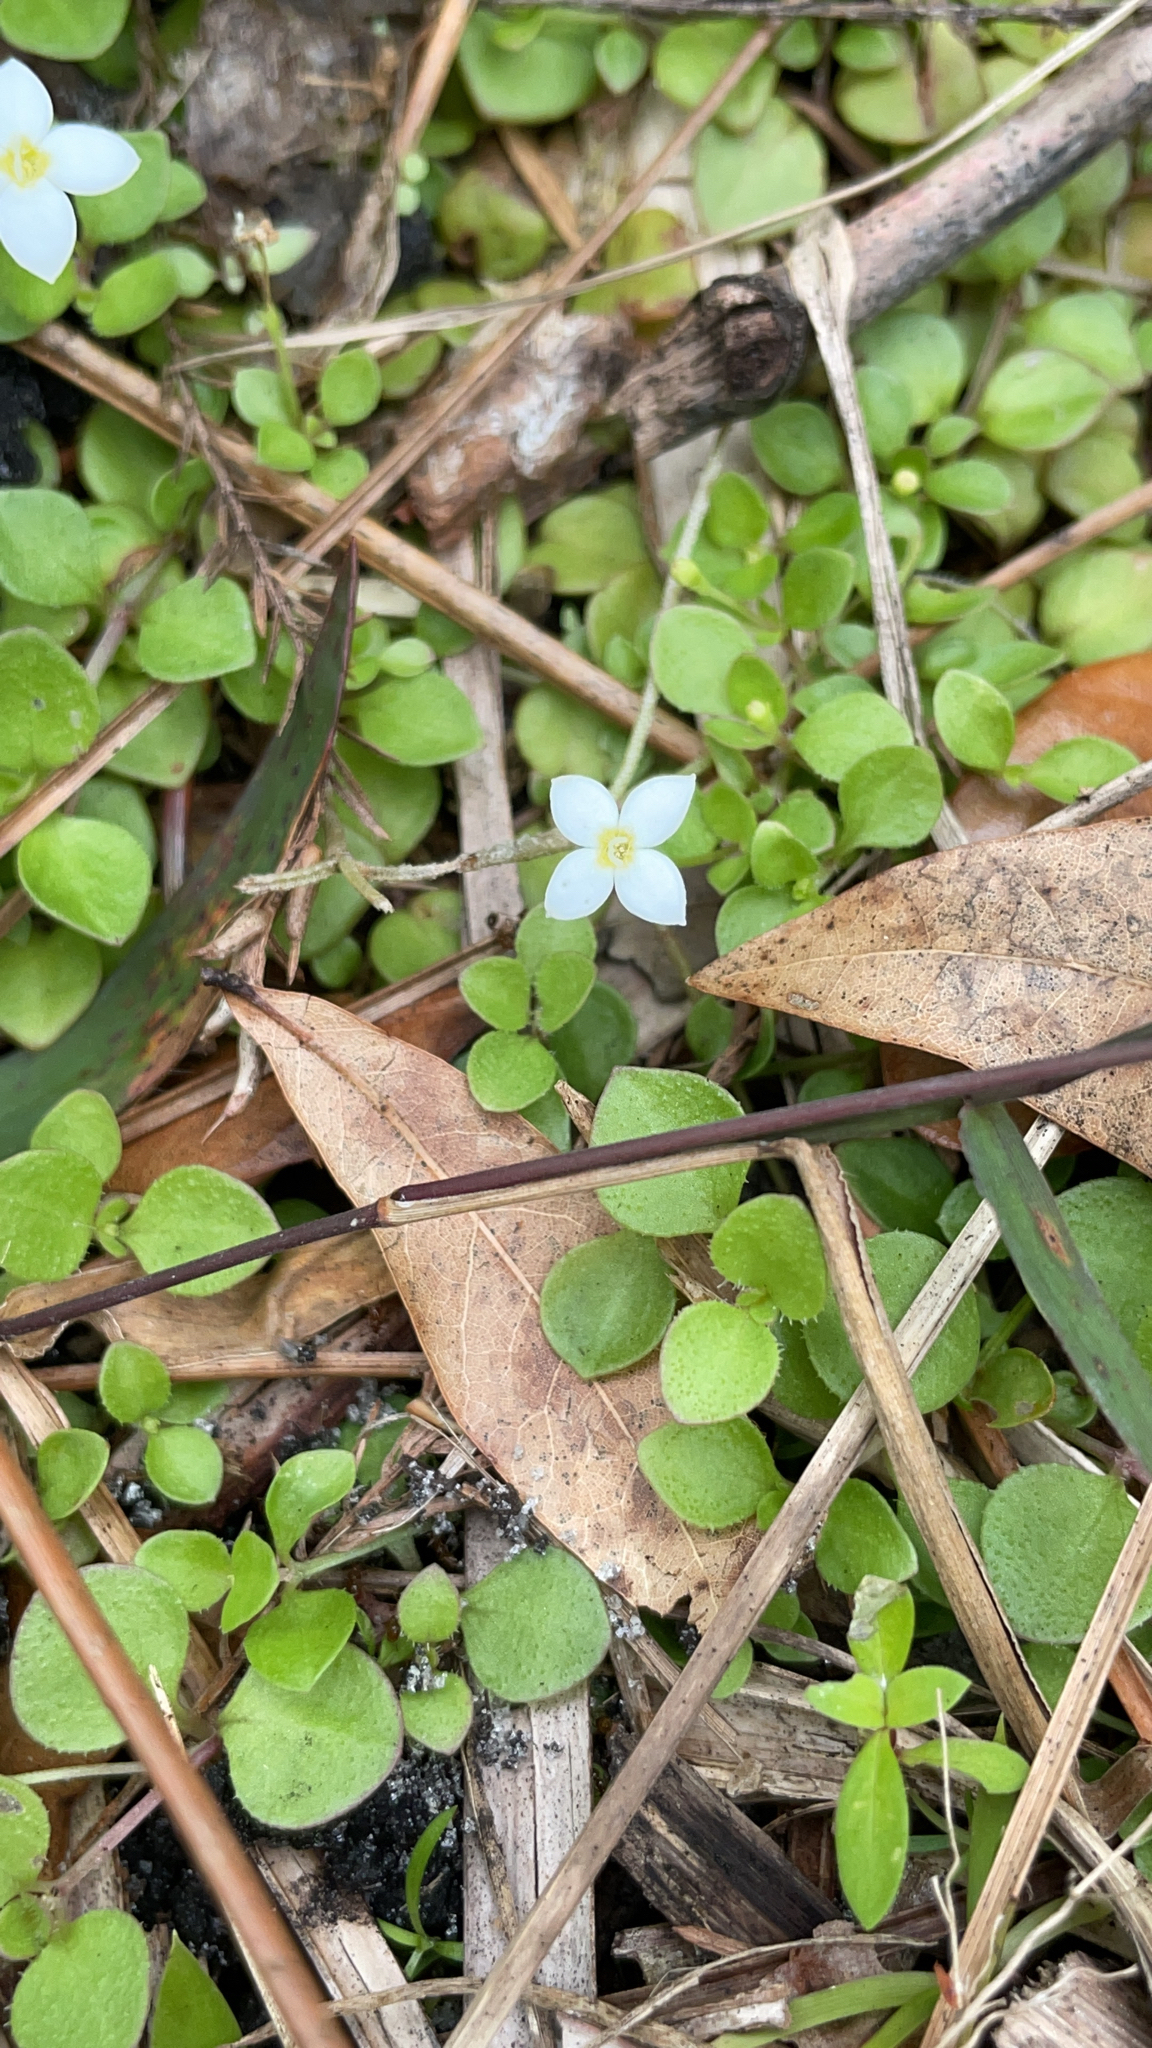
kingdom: Plantae
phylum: Tracheophyta
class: Magnoliopsida
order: Gentianales
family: Rubiaceae
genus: Houstonia
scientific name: Houstonia procumbens
